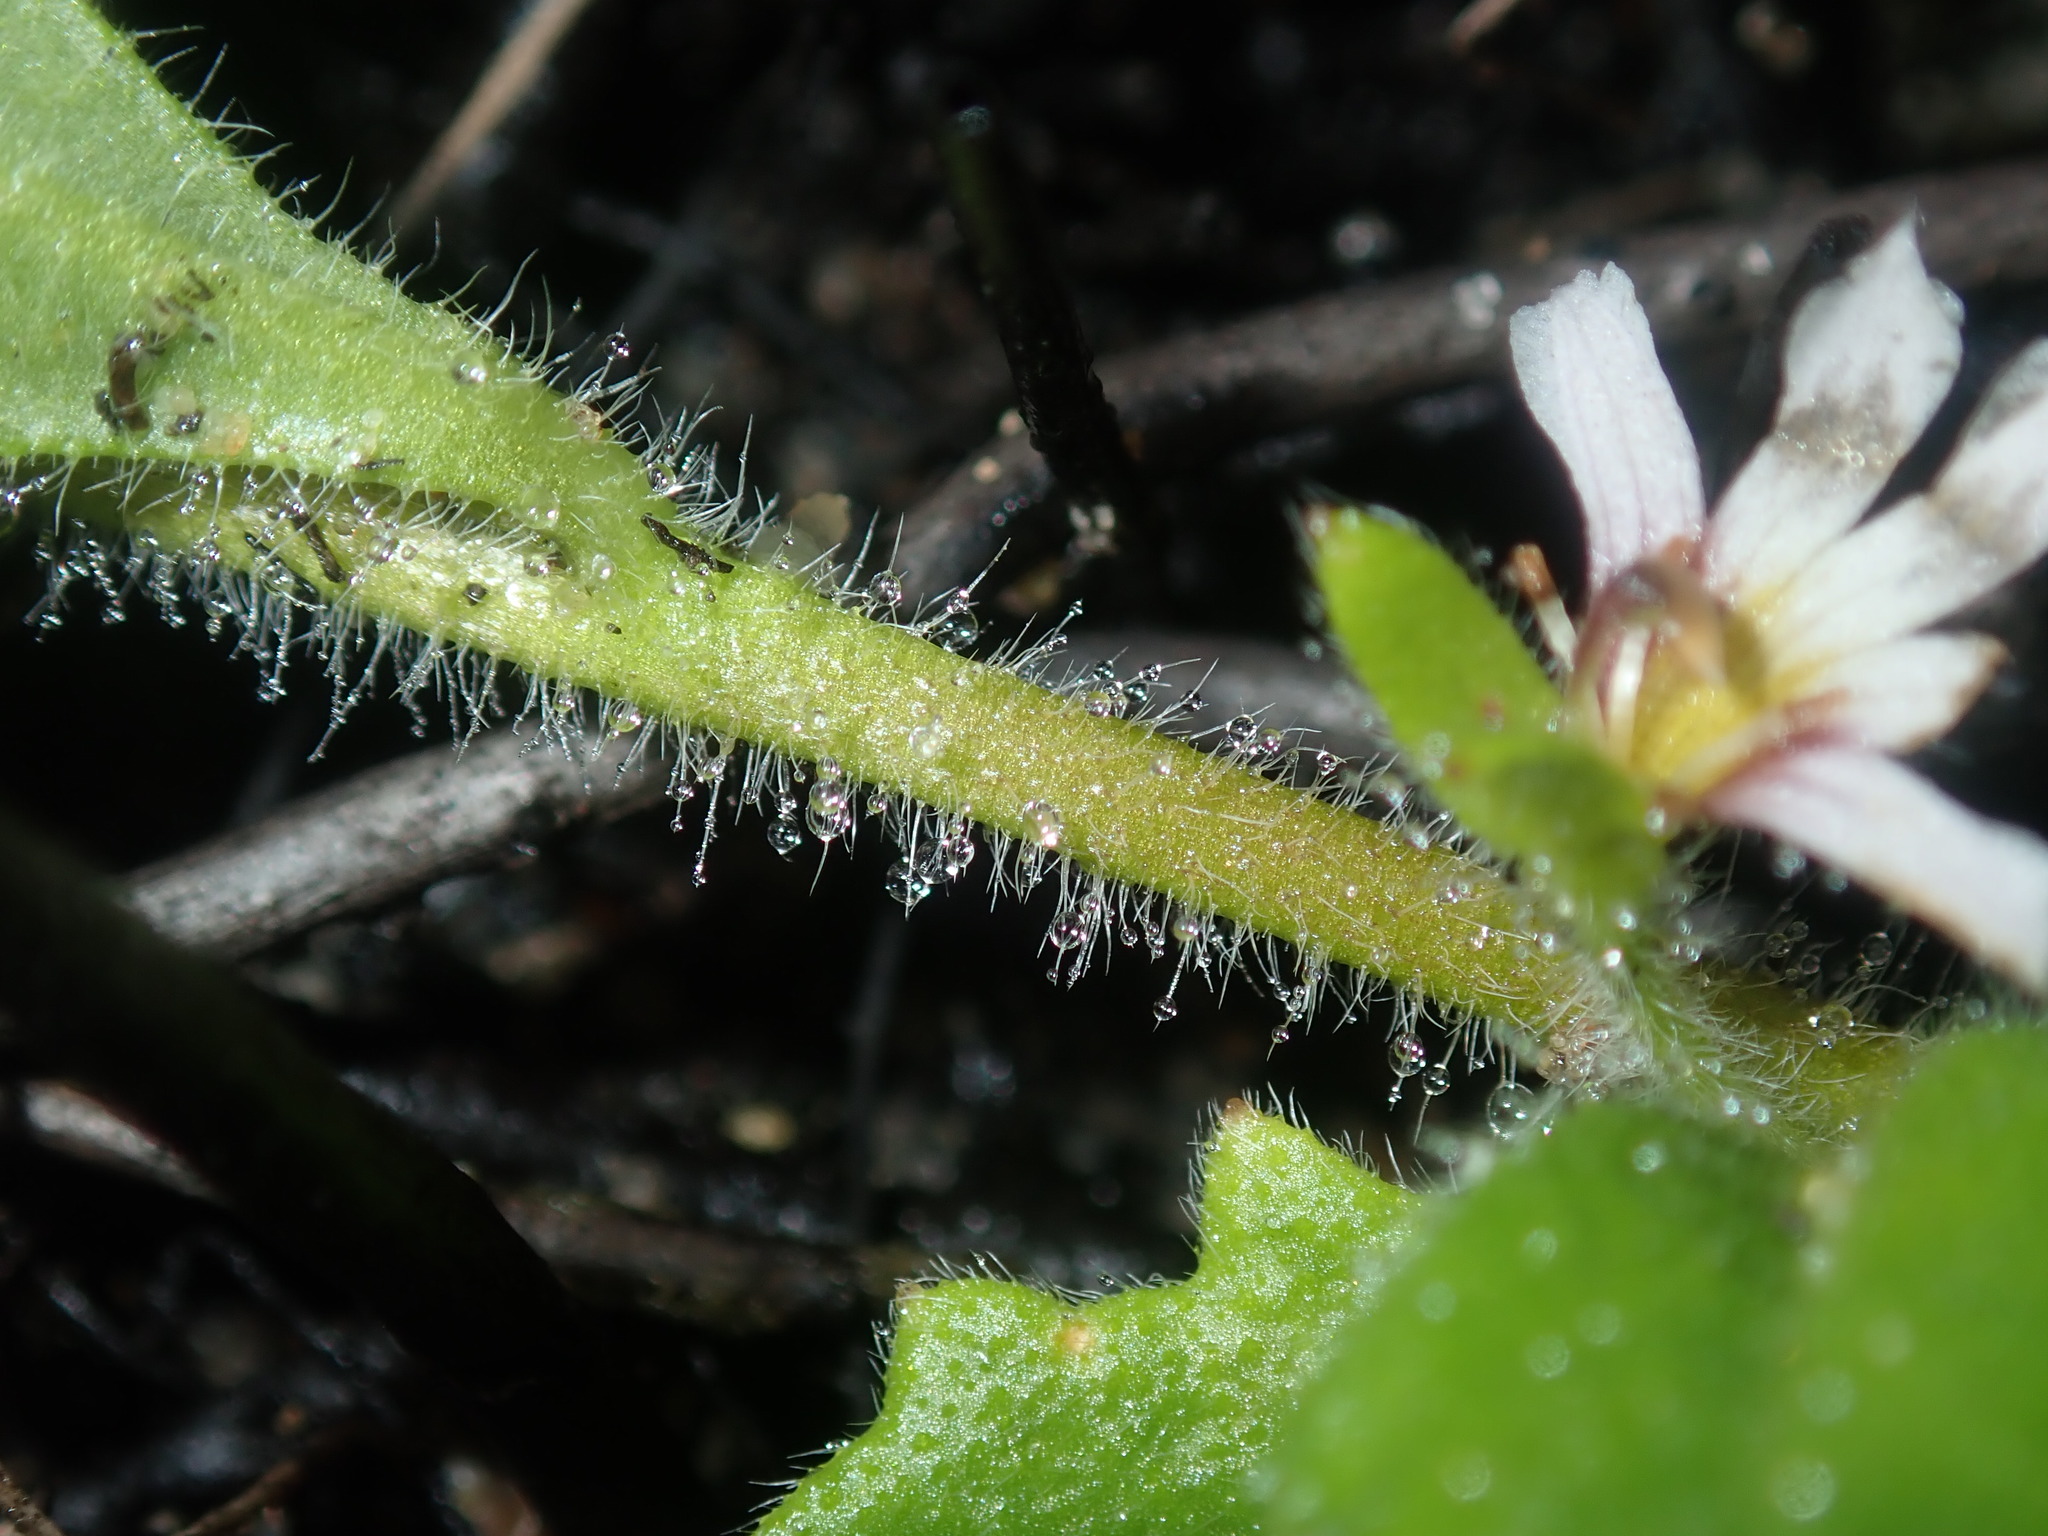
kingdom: Plantae
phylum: Tracheophyta
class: Magnoliopsida
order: Asterales
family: Goodeniaceae
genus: Scaevola
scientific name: Scaevola hookeri
